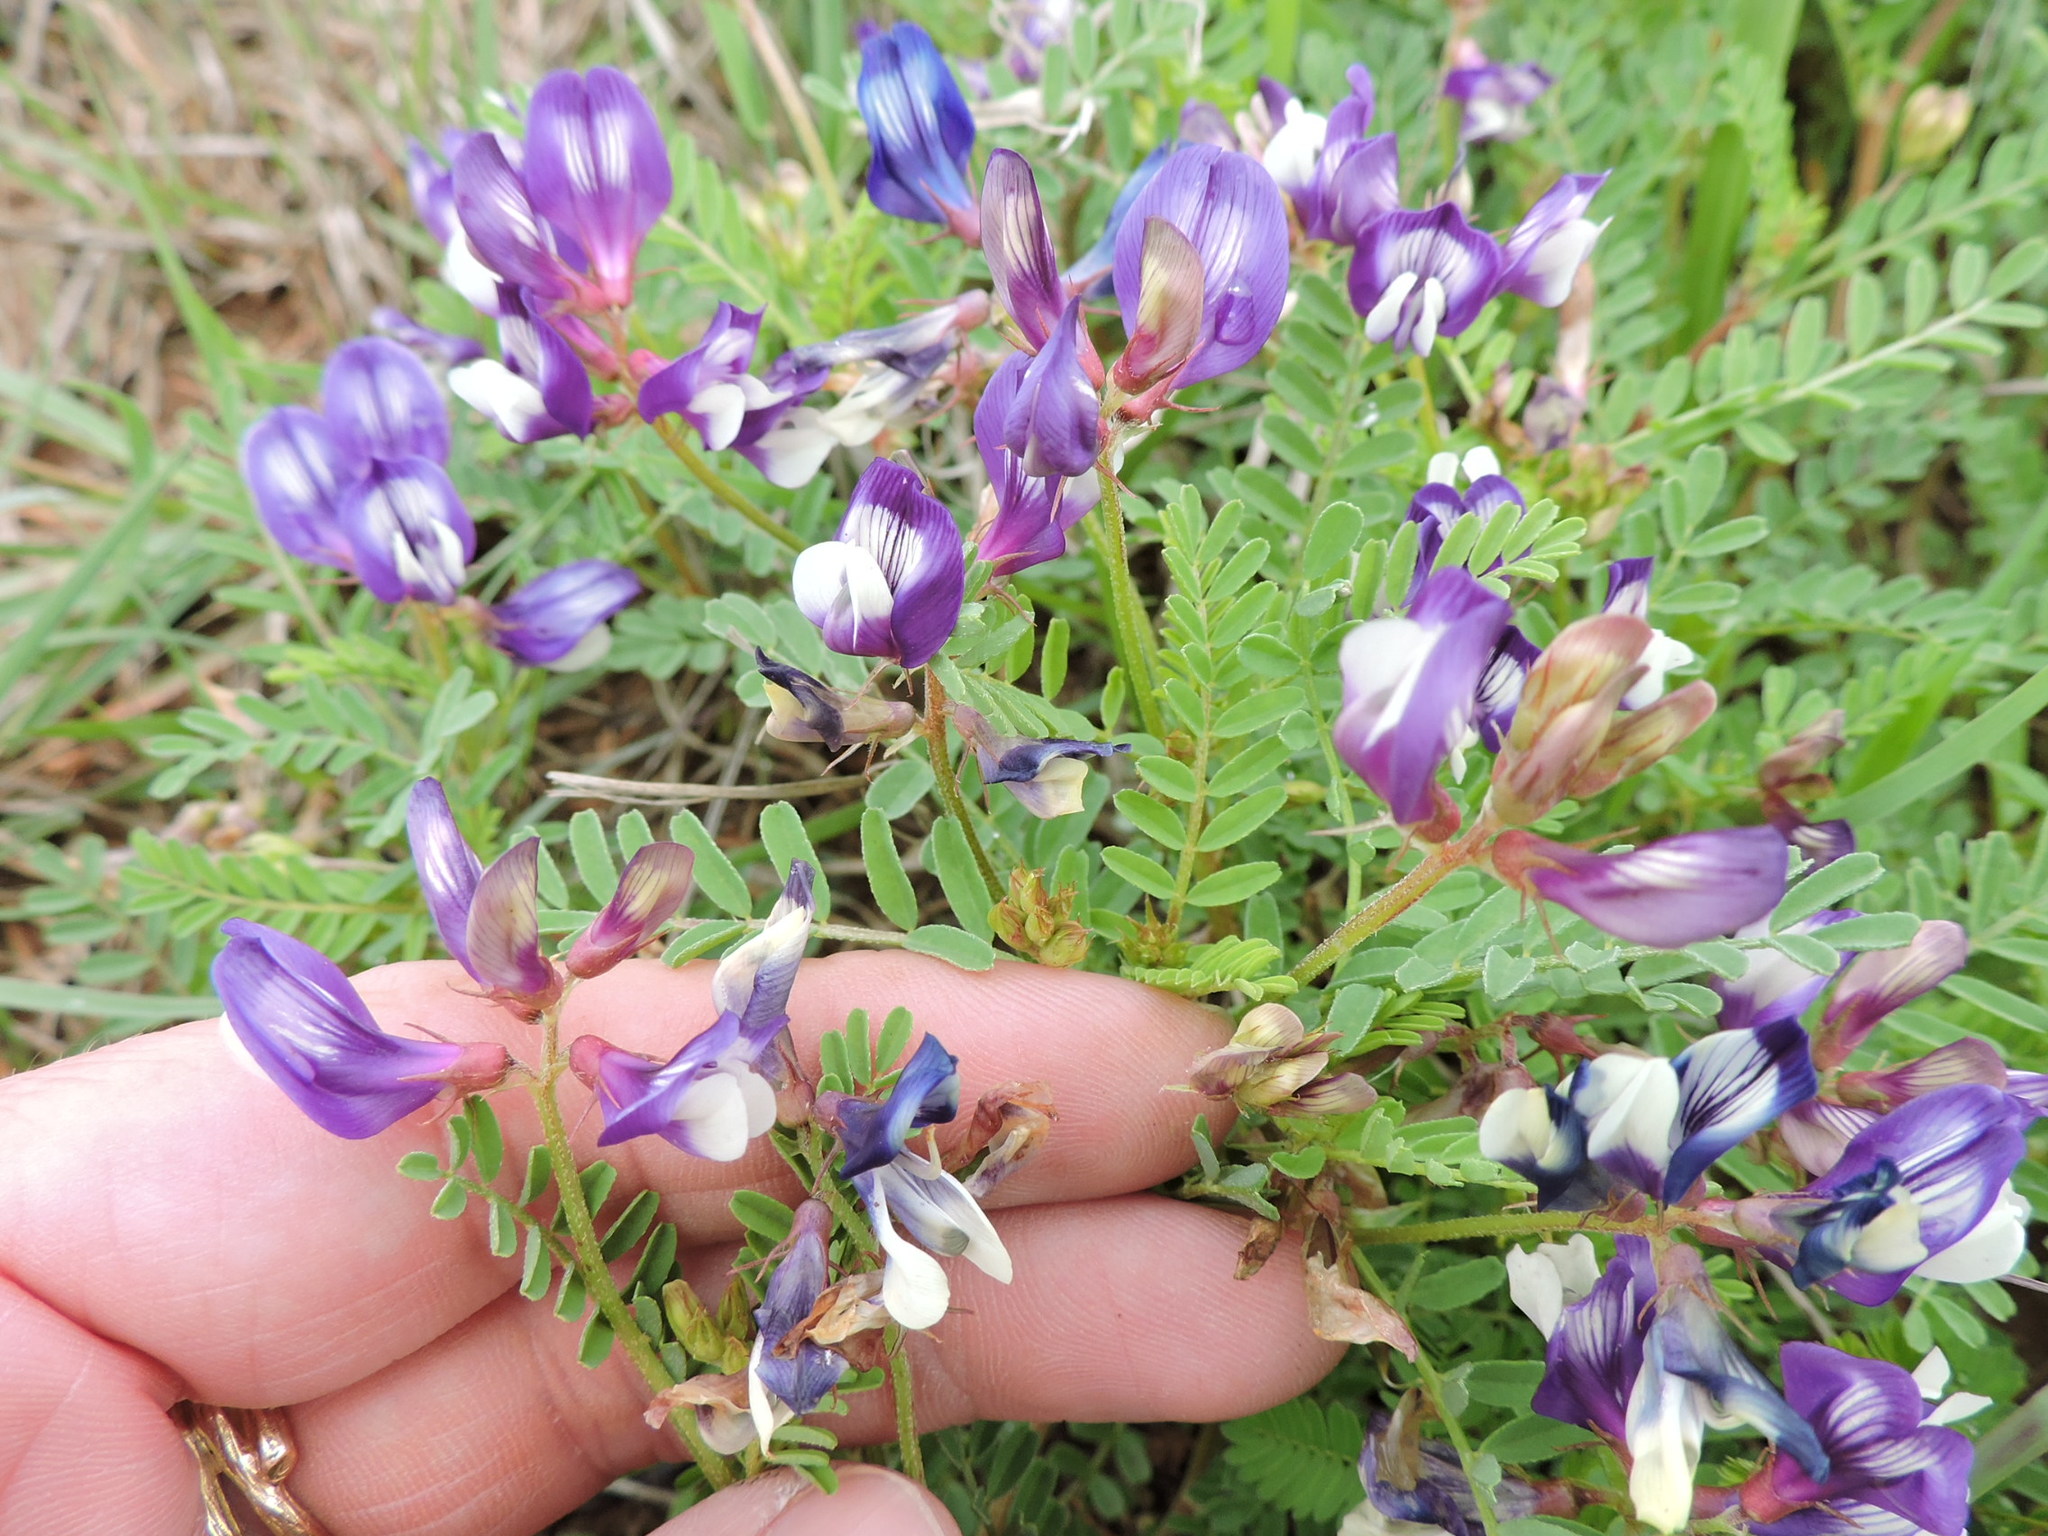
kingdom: Plantae
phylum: Tracheophyta
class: Magnoliopsida
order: Fabales
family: Fabaceae
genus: Astragalus
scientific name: Astragalus lindheimeri
